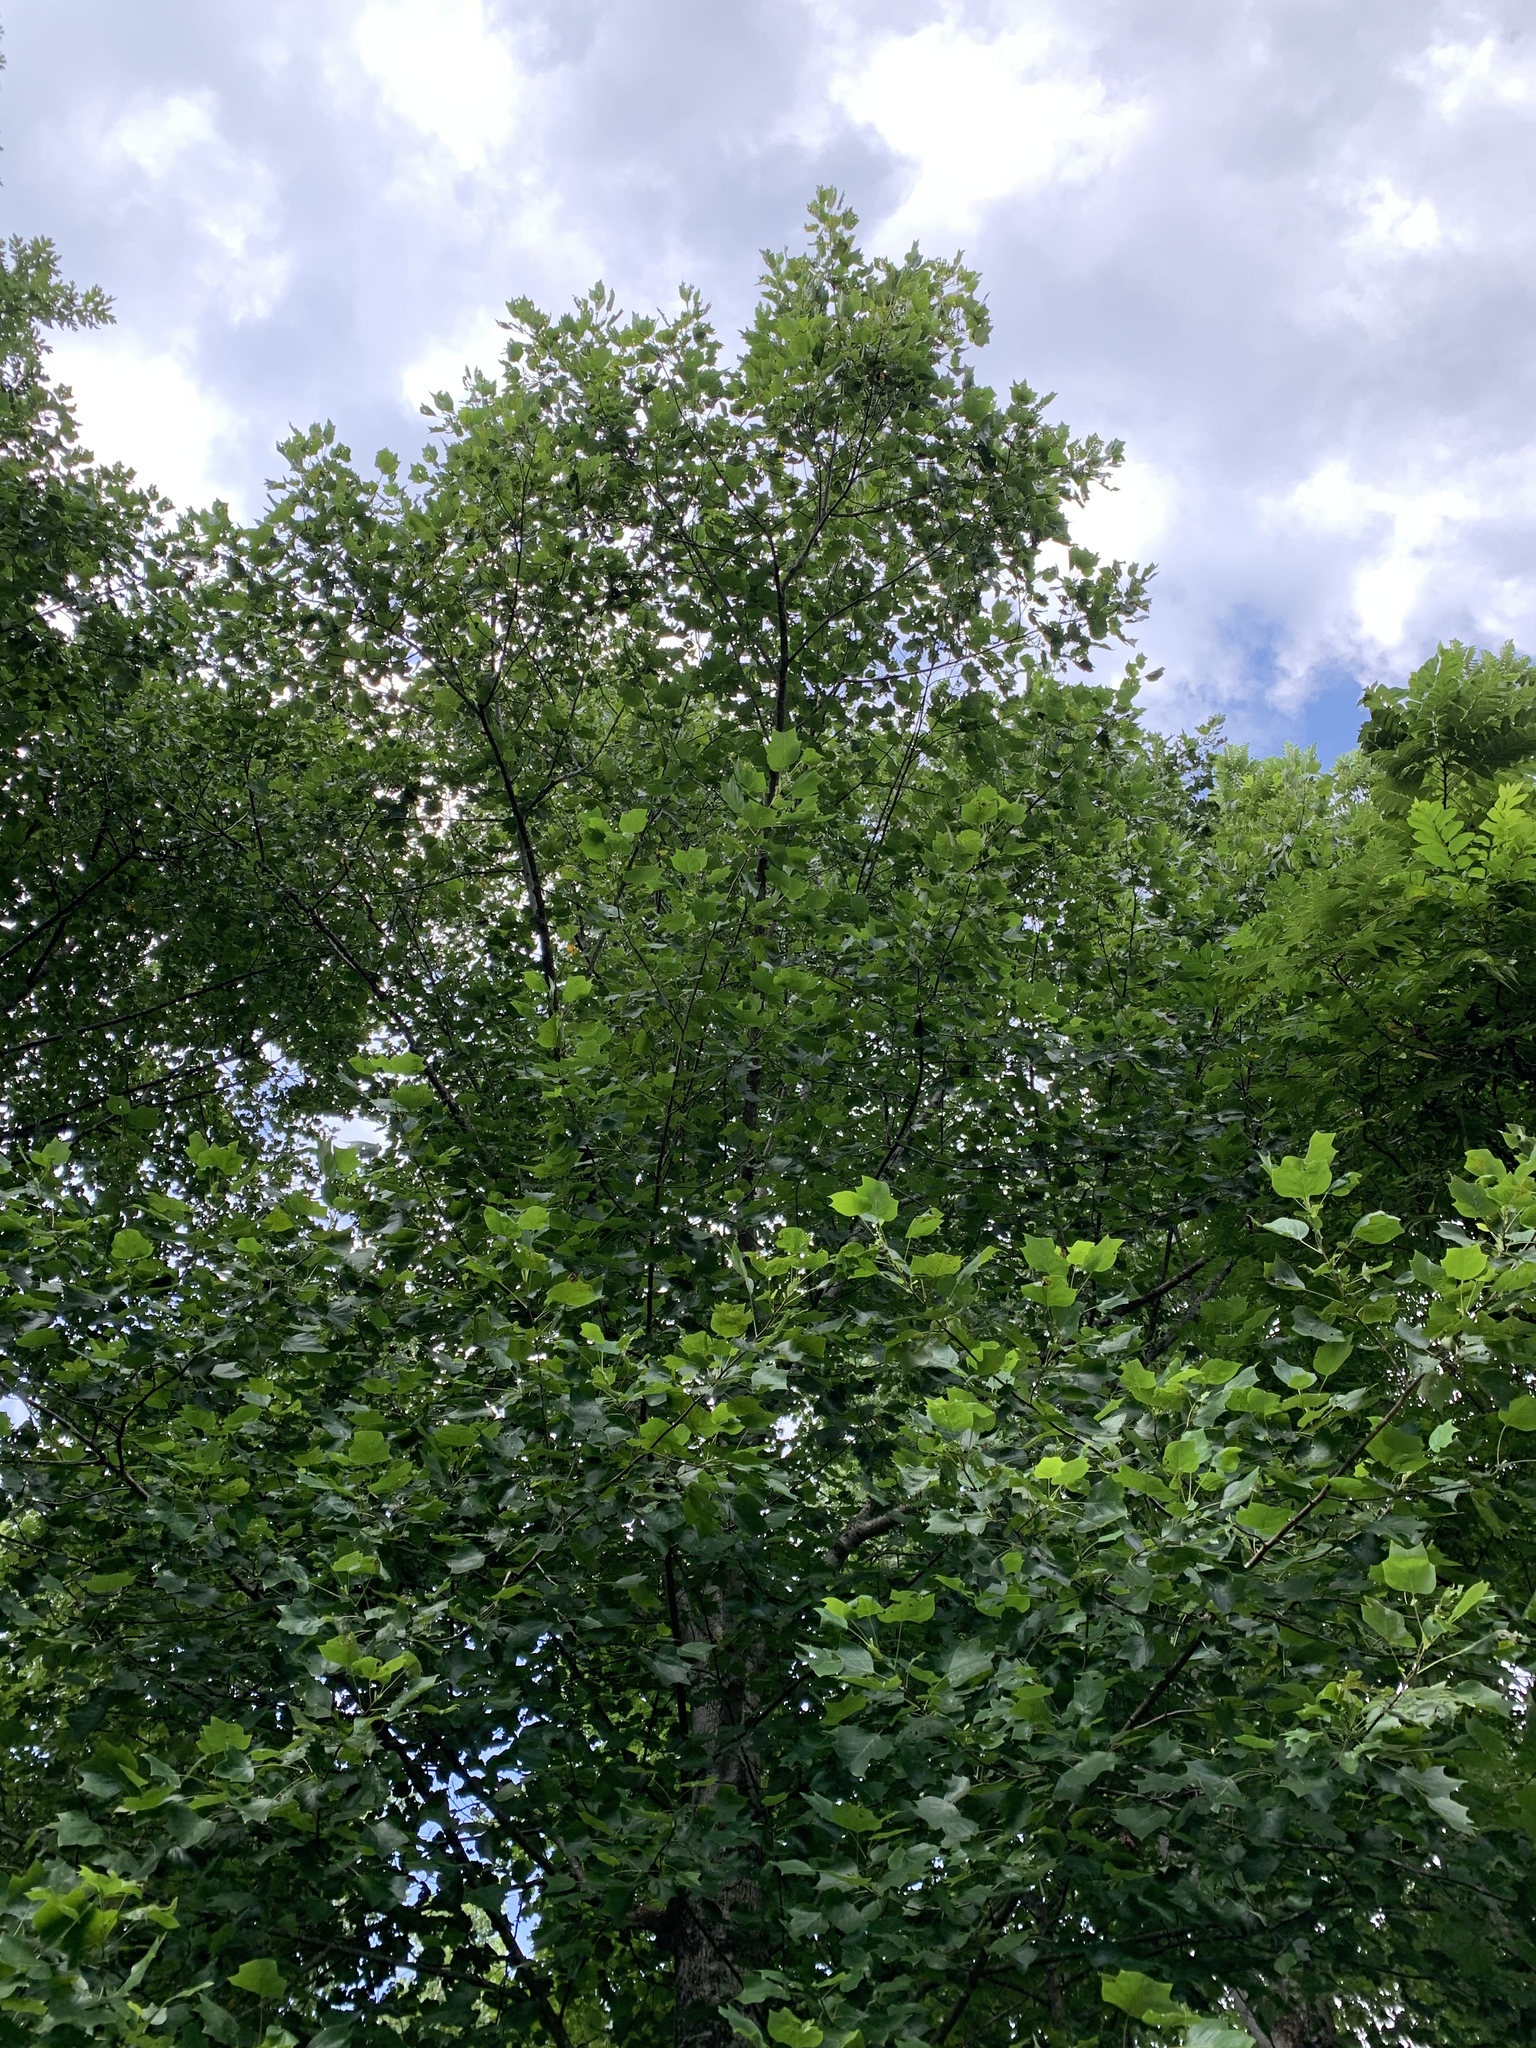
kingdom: Plantae
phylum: Tracheophyta
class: Magnoliopsida
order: Magnoliales
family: Magnoliaceae
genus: Liriodendron
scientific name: Liriodendron tulipifera
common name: Tulip tree
